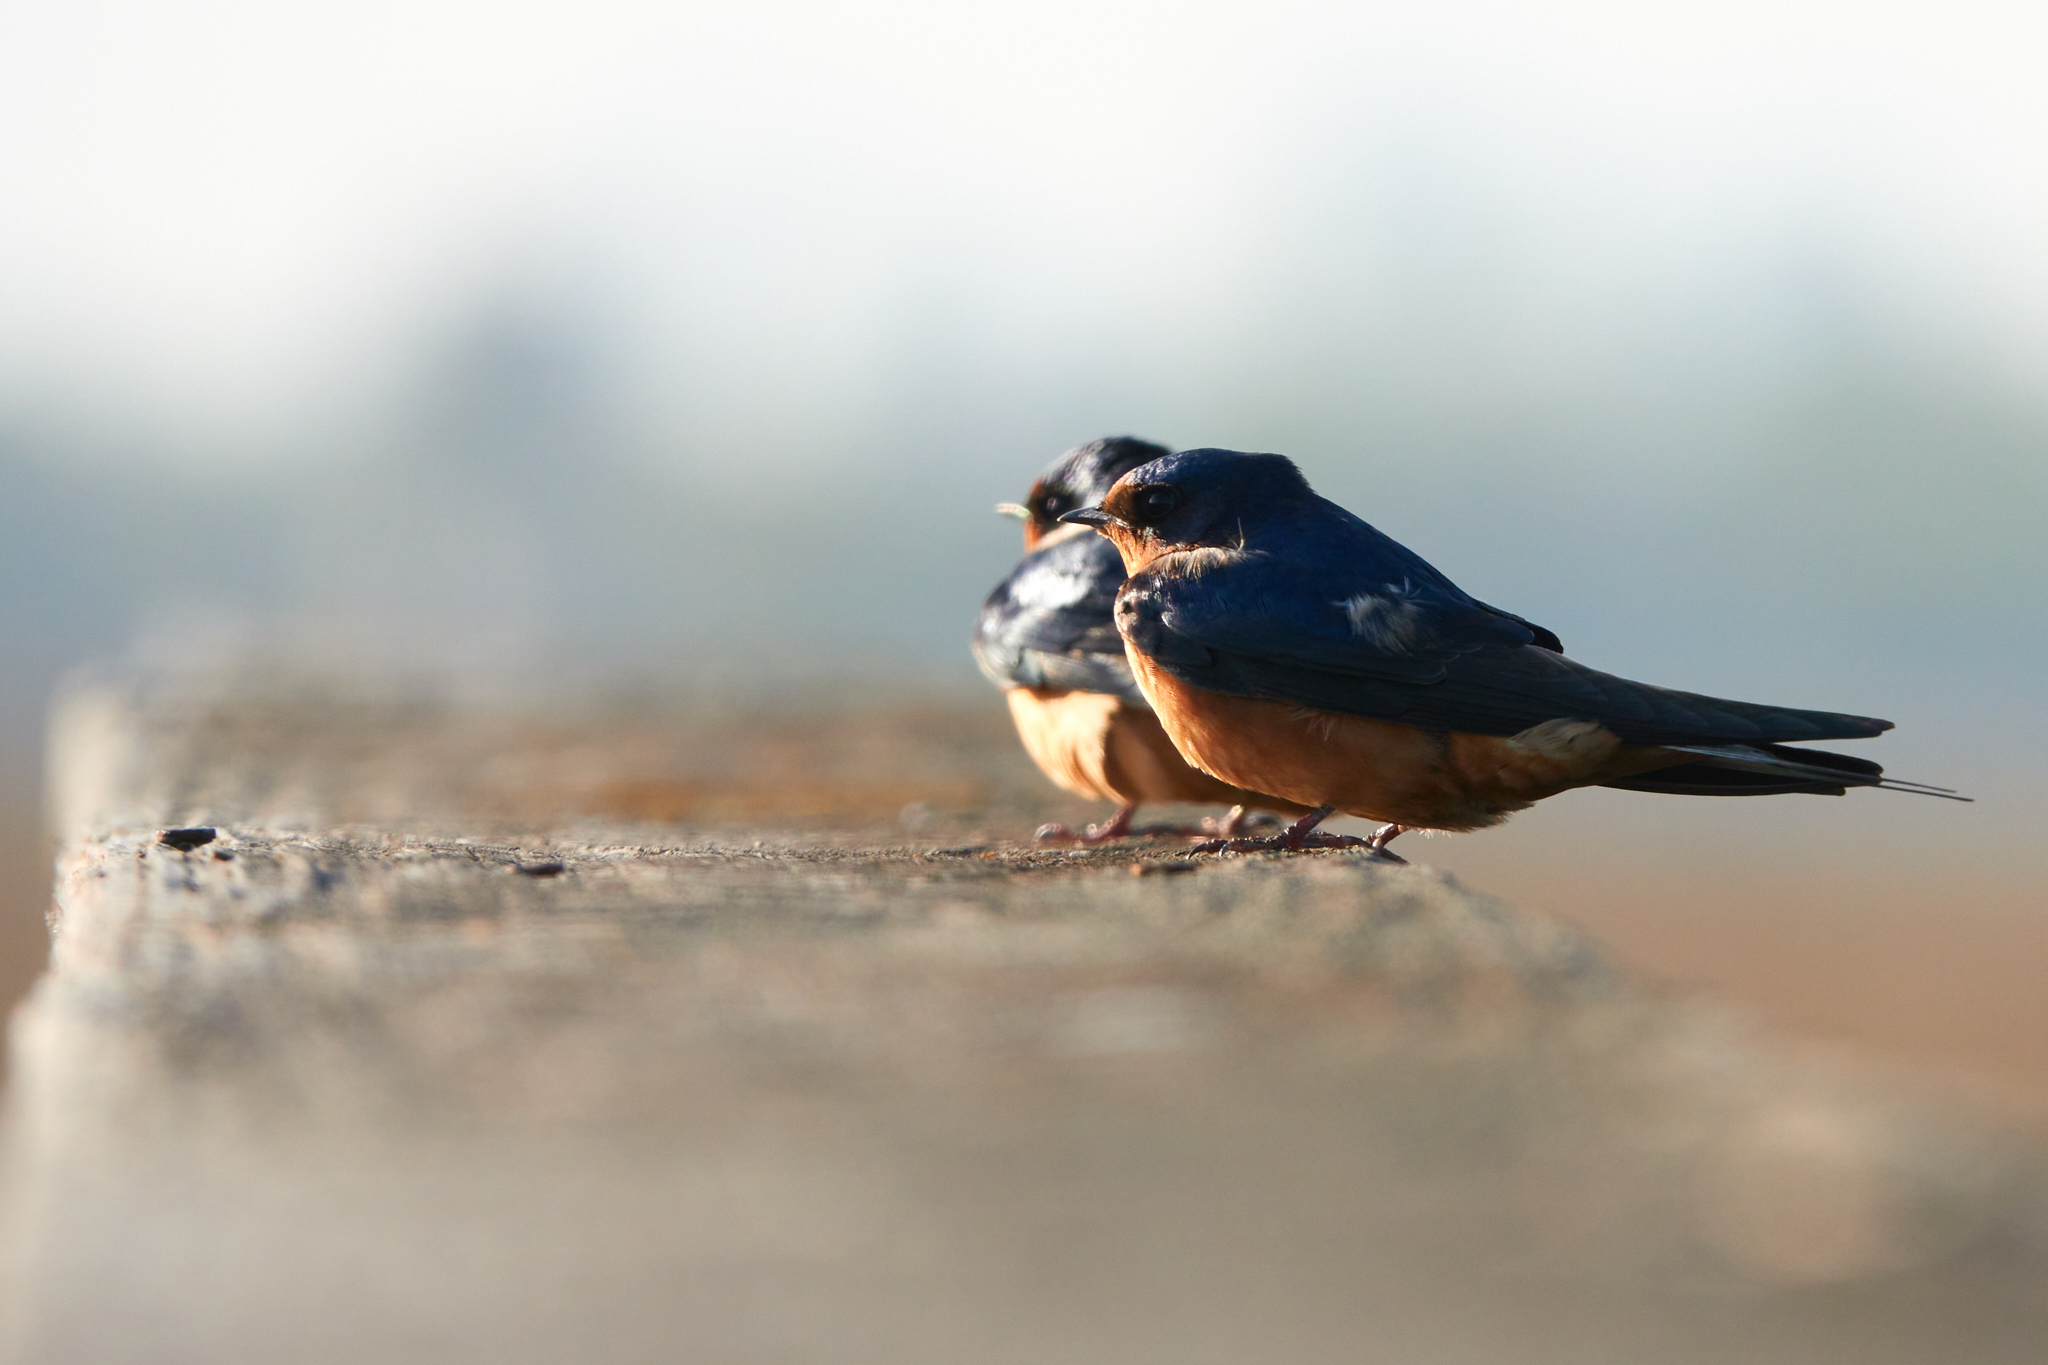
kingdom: Animalia
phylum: Chordata
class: Aves
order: Passeriformes
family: Hirundinidae
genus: Hirundo
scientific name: Hirundo rustica
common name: Barn swallow
